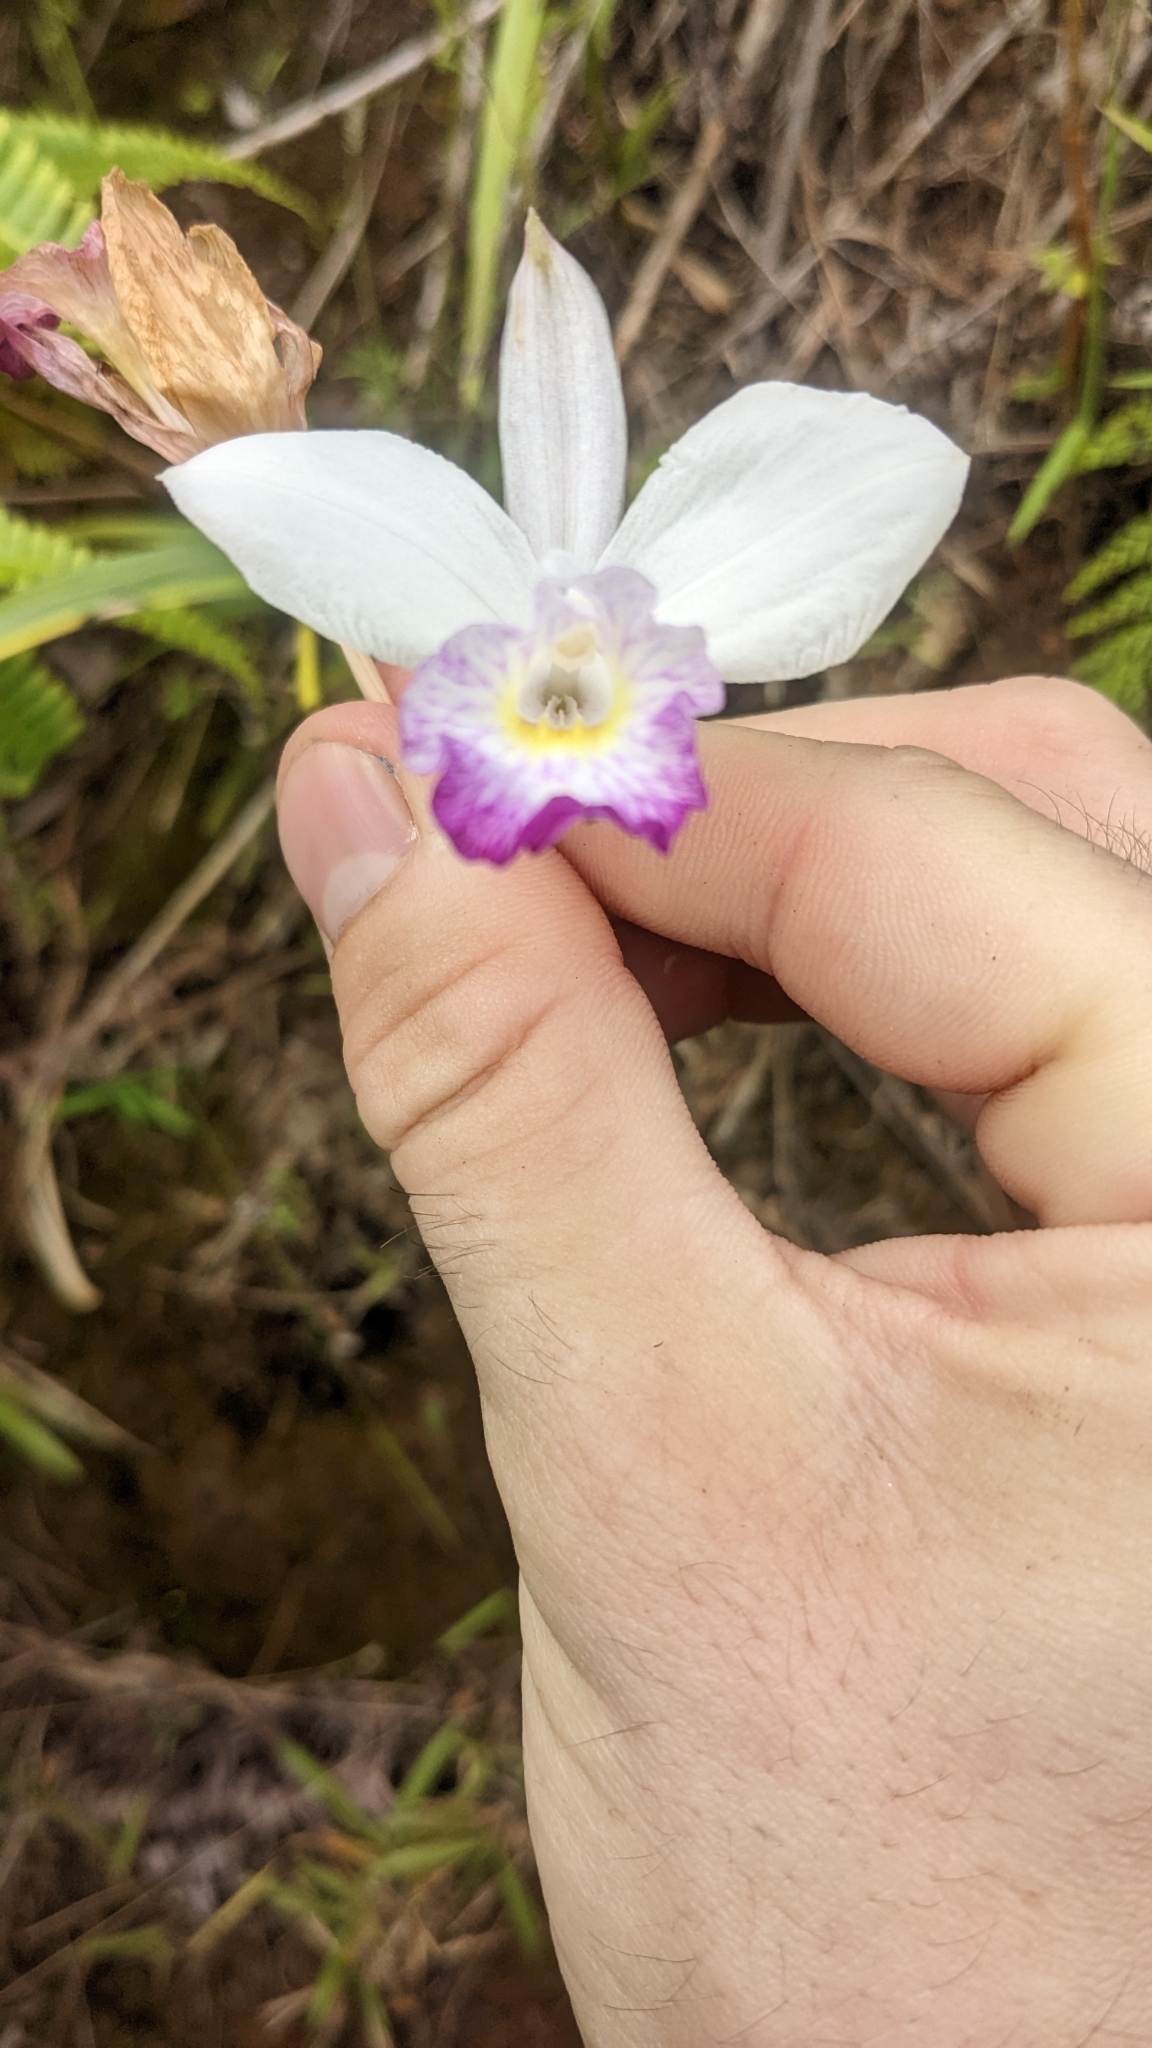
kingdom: Plantae
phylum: Tracheophyta
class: Liliopsida
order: Asparagales
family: Orchidaceae
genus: Arundina
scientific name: Arundina graminifolia
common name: Bamboo orchid
